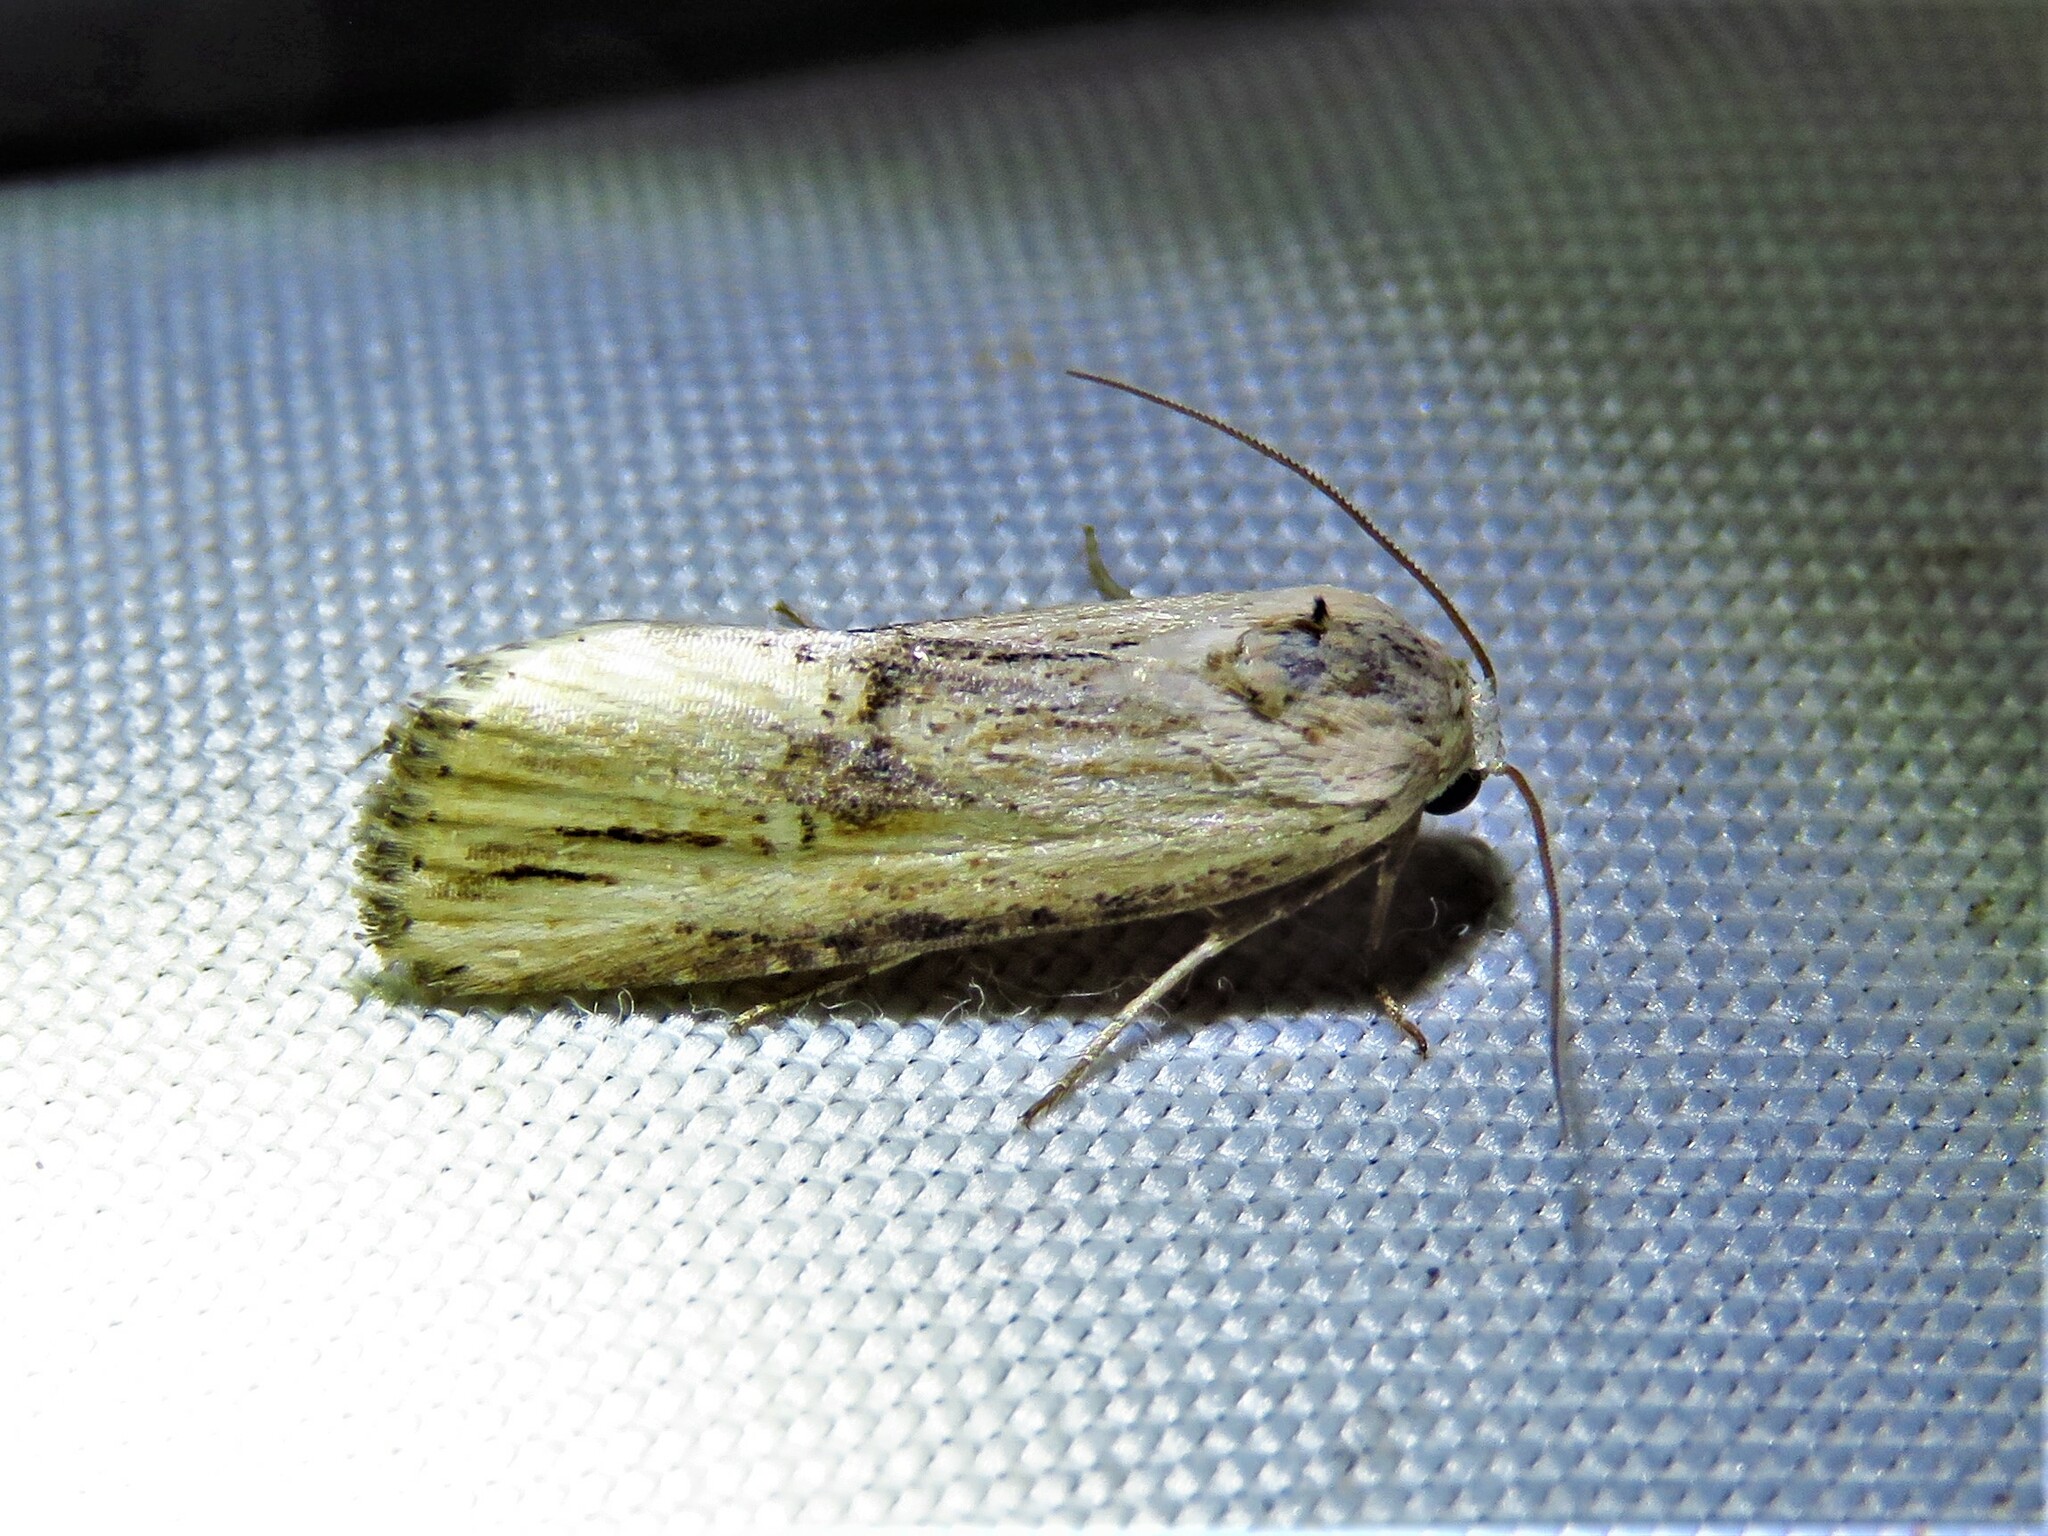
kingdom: Animalia
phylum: Arthropoda
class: Insecta
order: Lepidoptera
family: Noctuidae
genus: Crambodes
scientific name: Crambodes talidiformis
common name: Verbena moth
